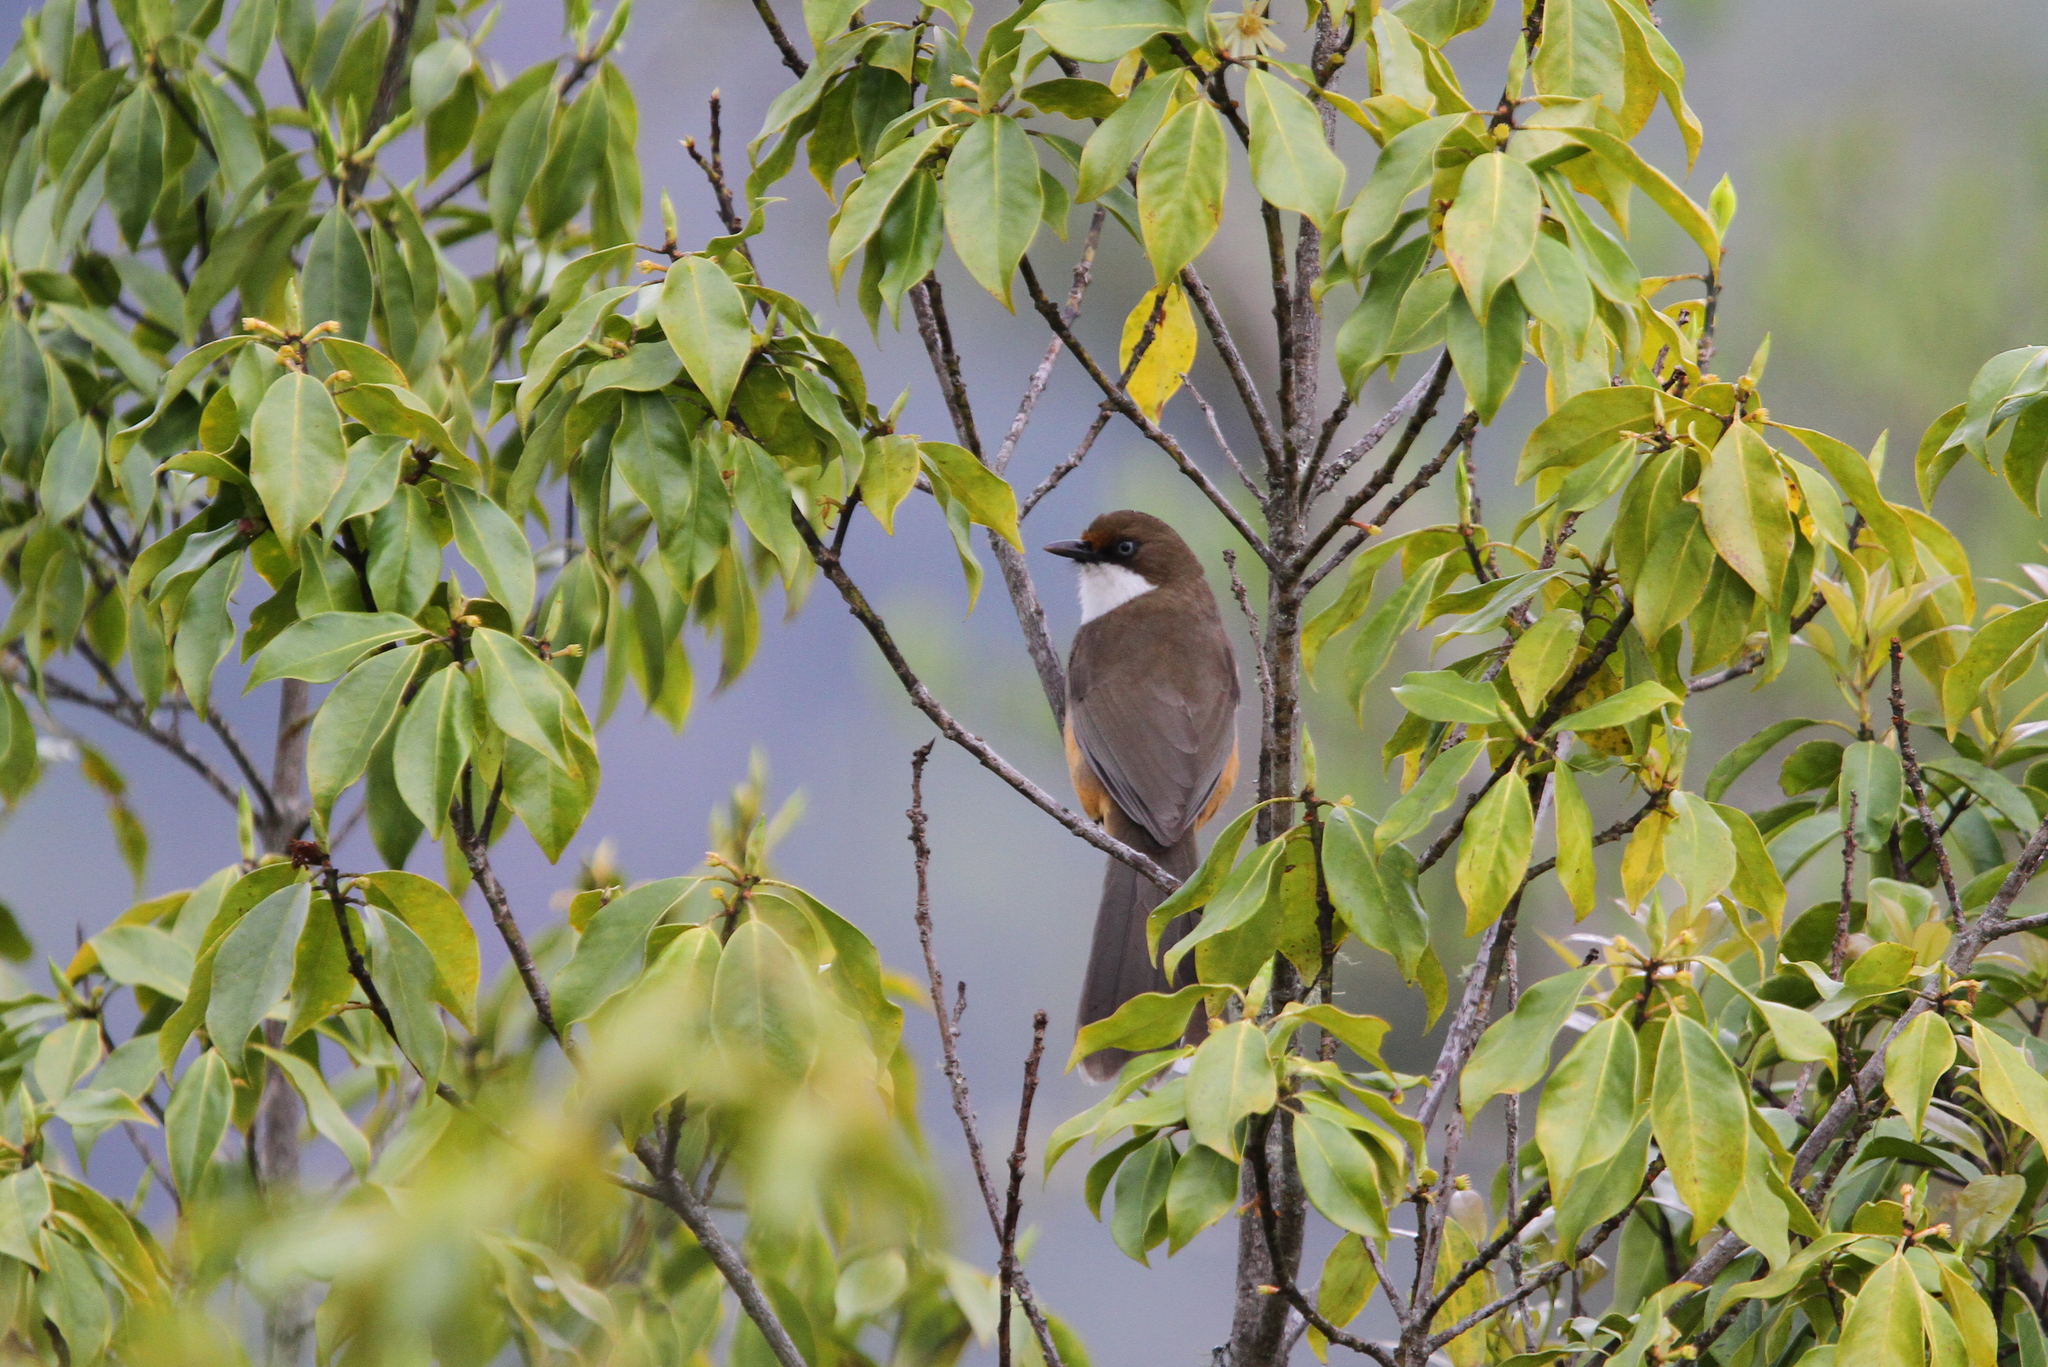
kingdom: Animalia
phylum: Chordata
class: Aves
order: Passeriformes
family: Leiothrichidae
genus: Garrulax
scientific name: Garrulax albogularis
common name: White-throated laughingthrush
